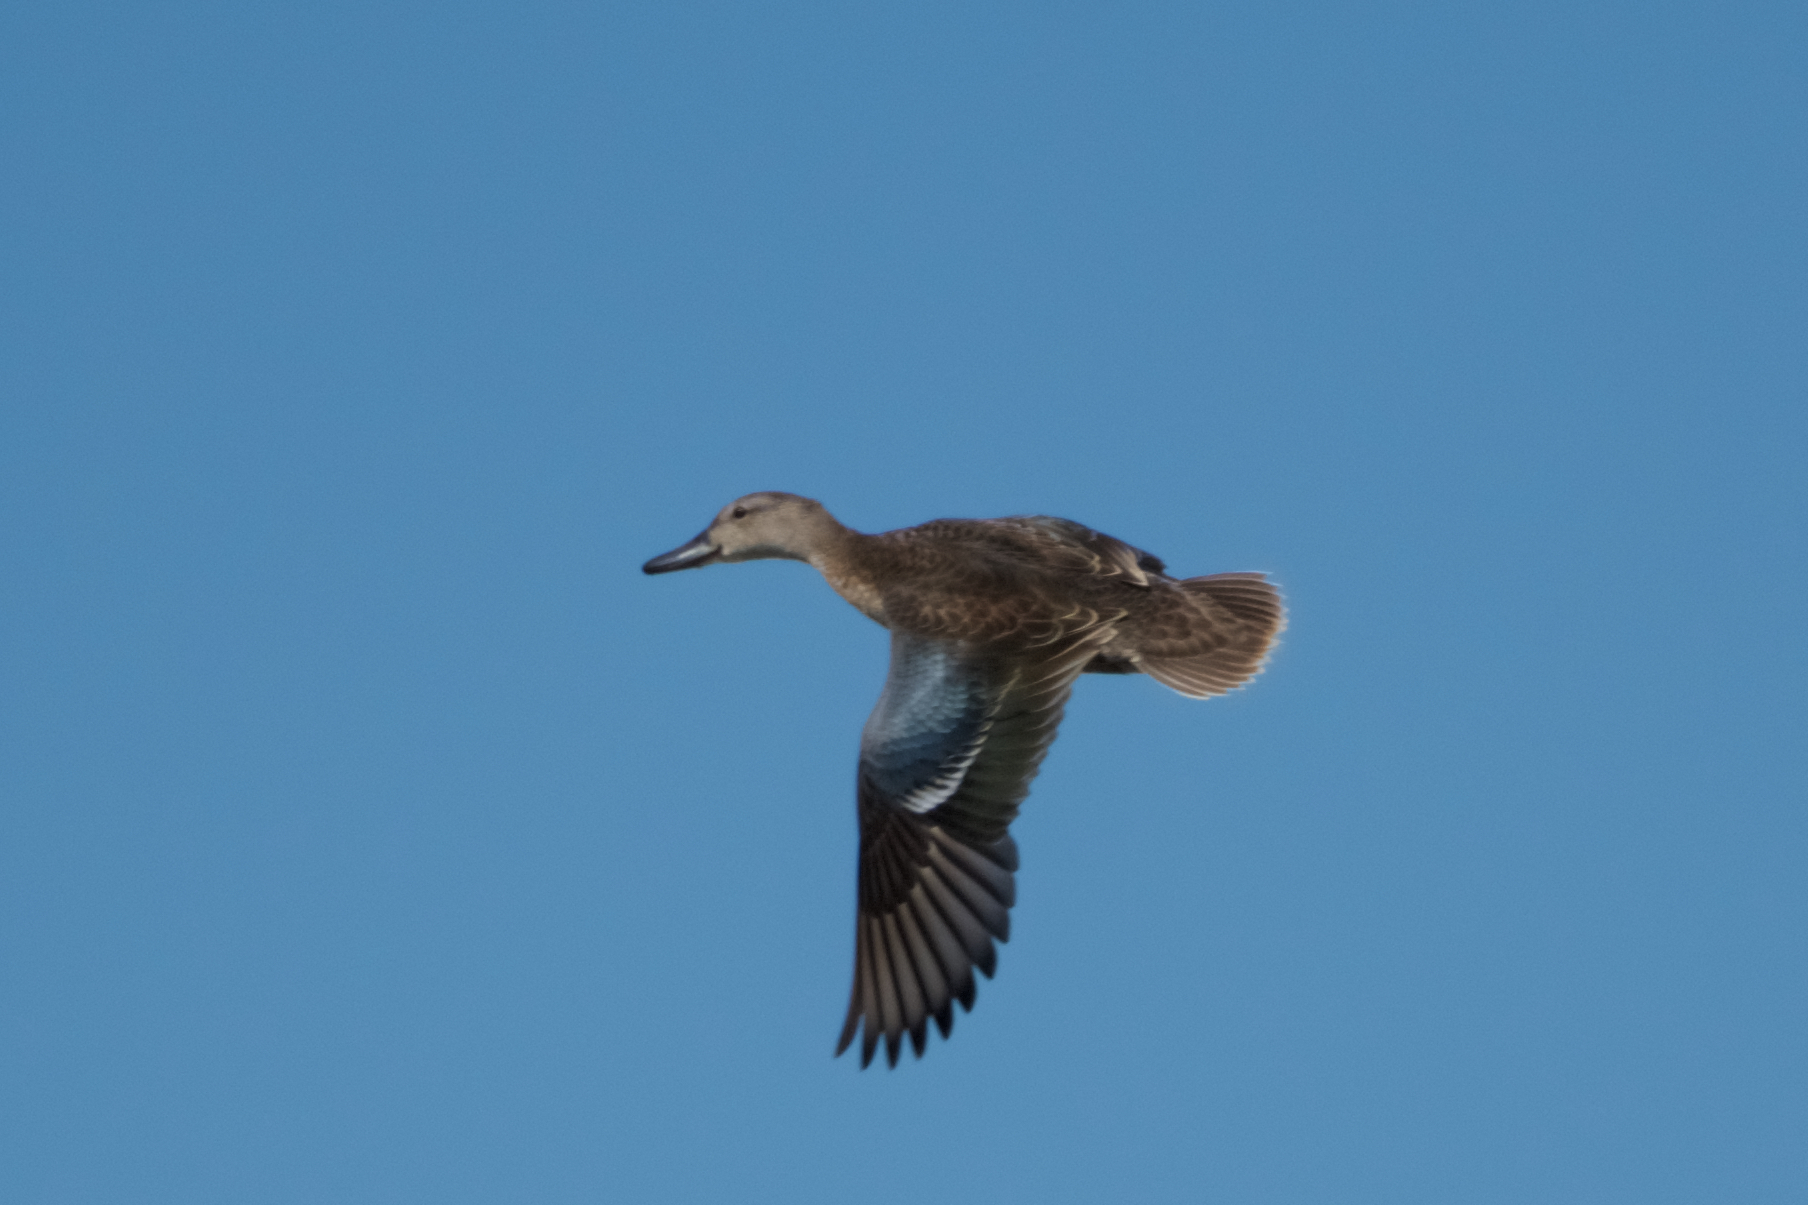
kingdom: Animalia
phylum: Chordata
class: Aves
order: Anseriformes
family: Anatidae
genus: Spatula
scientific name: Spatula discors
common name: Blue-winged teal
